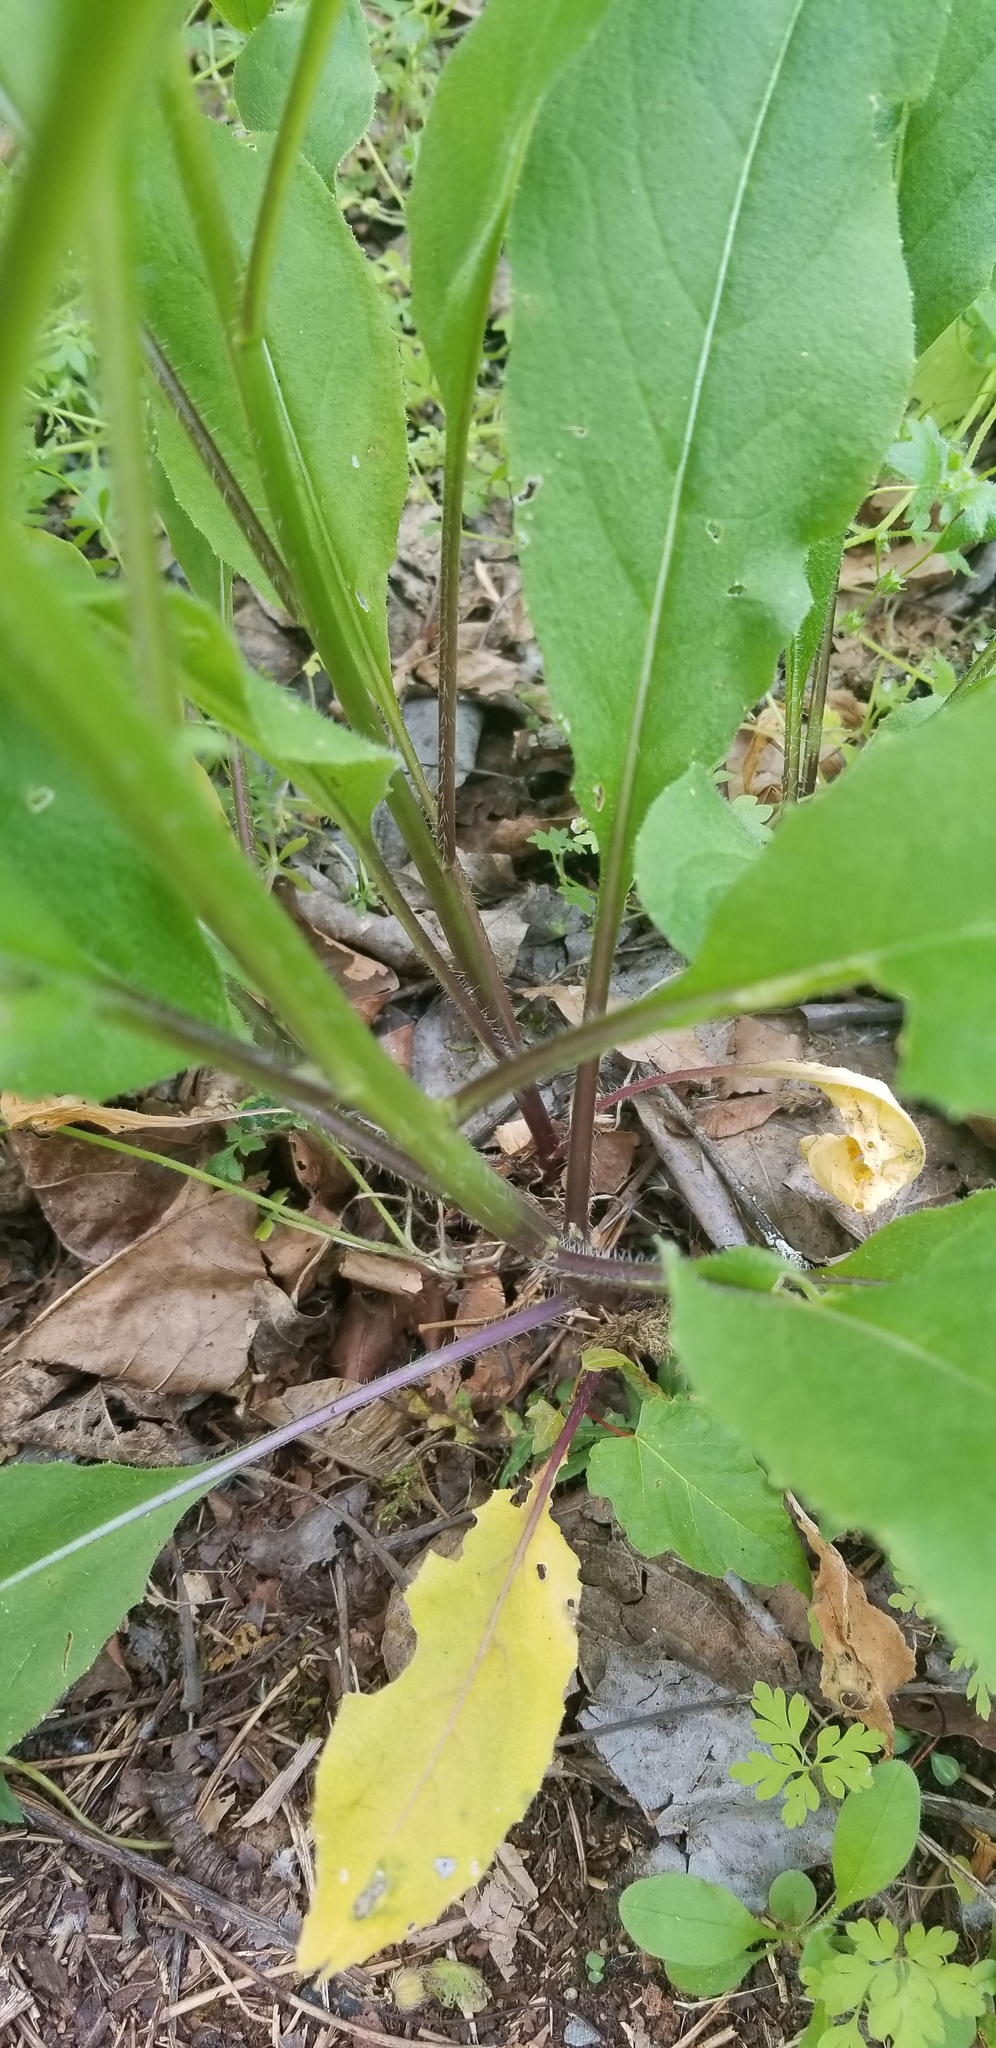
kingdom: Plantae
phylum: Tracheophyta
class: Magnoliopsida
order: Brassicales
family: Brassicaceae
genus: Hesperis
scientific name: Hesperis matronalis
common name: Dame's-violet
